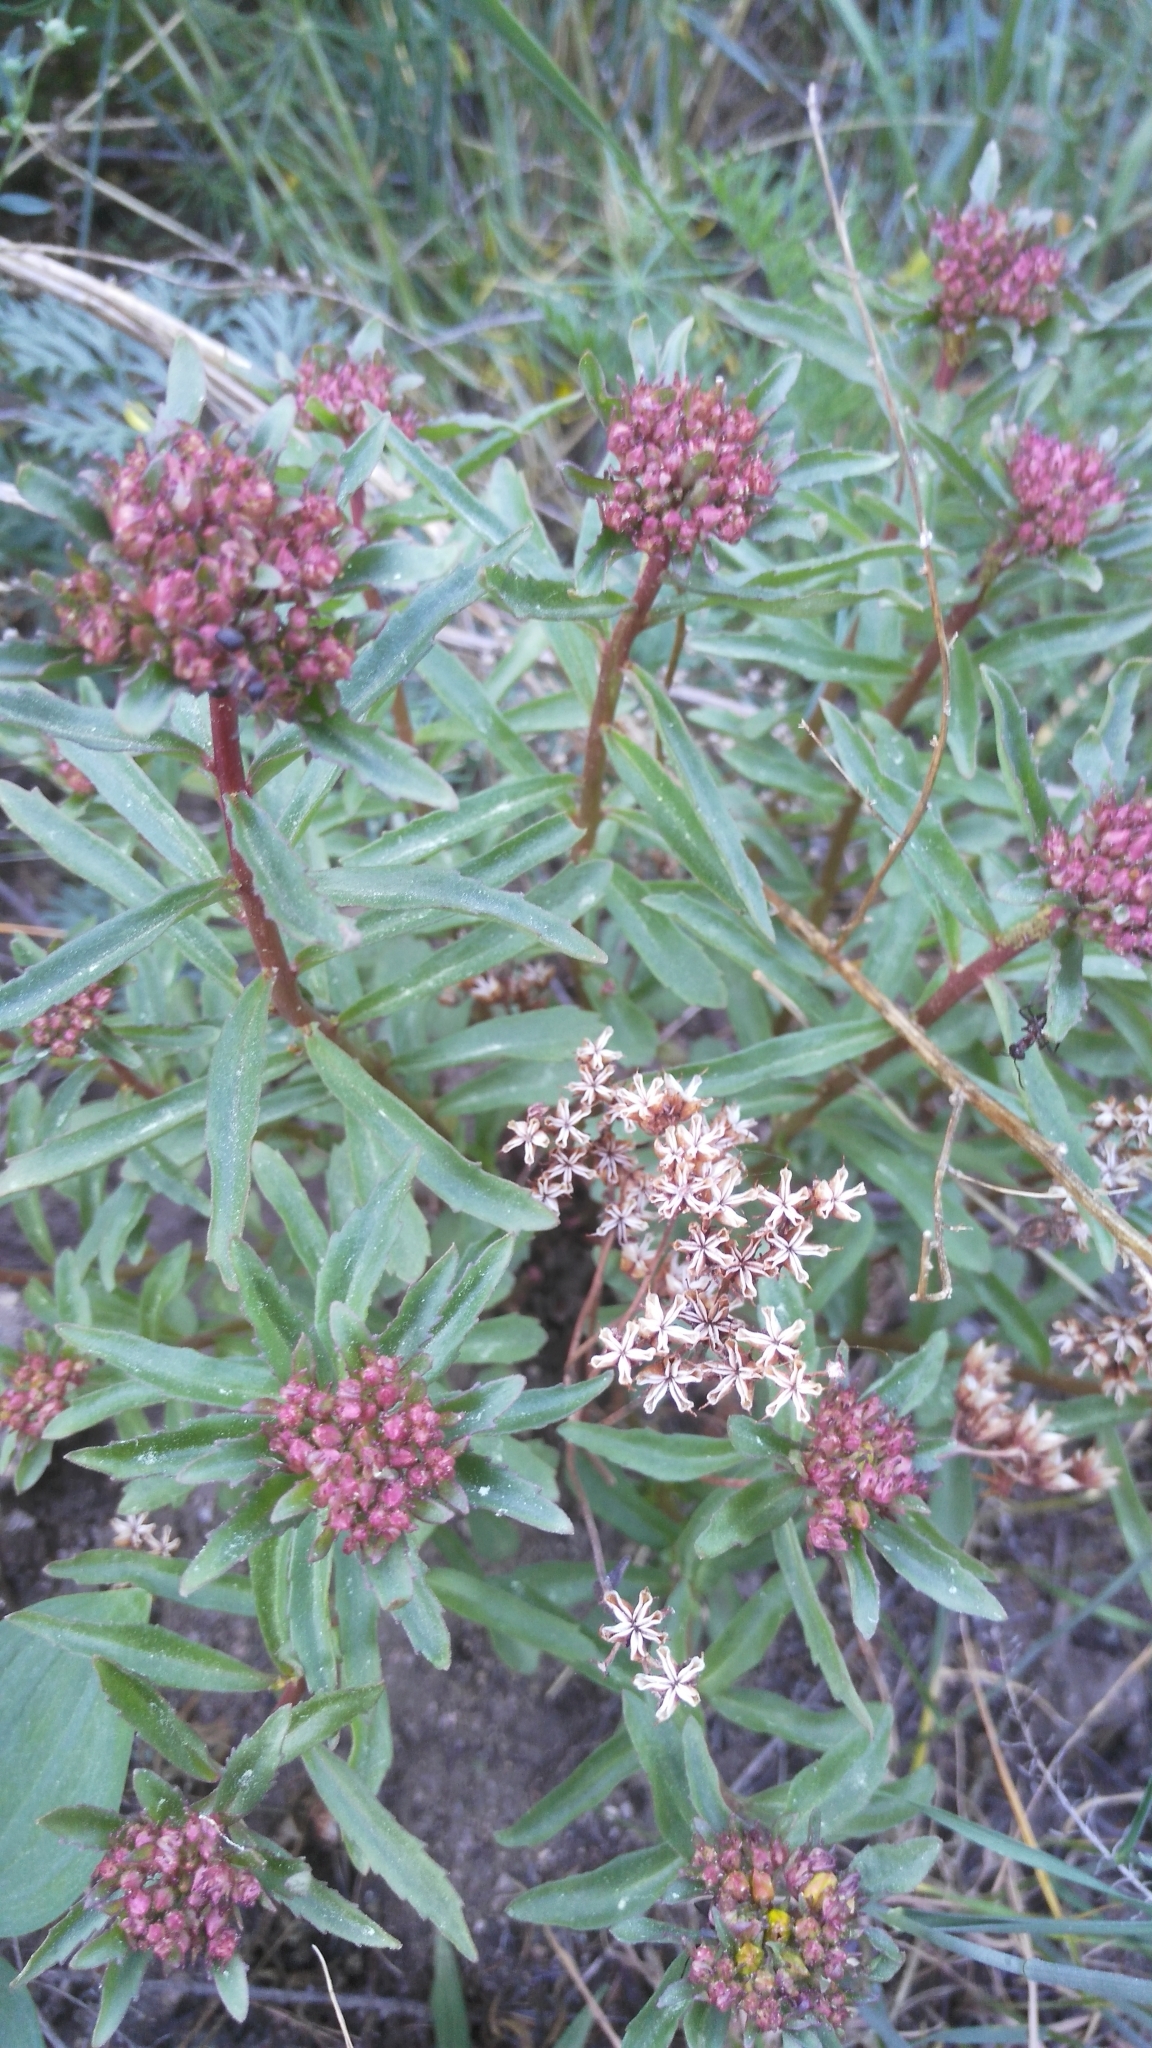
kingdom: Plantae
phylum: Tracheophyta
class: Magnoliopsida
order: Saxifragales
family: Crassulaceae
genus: Phedimus
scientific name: Phedimus aizoon
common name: Orpin aizoon
